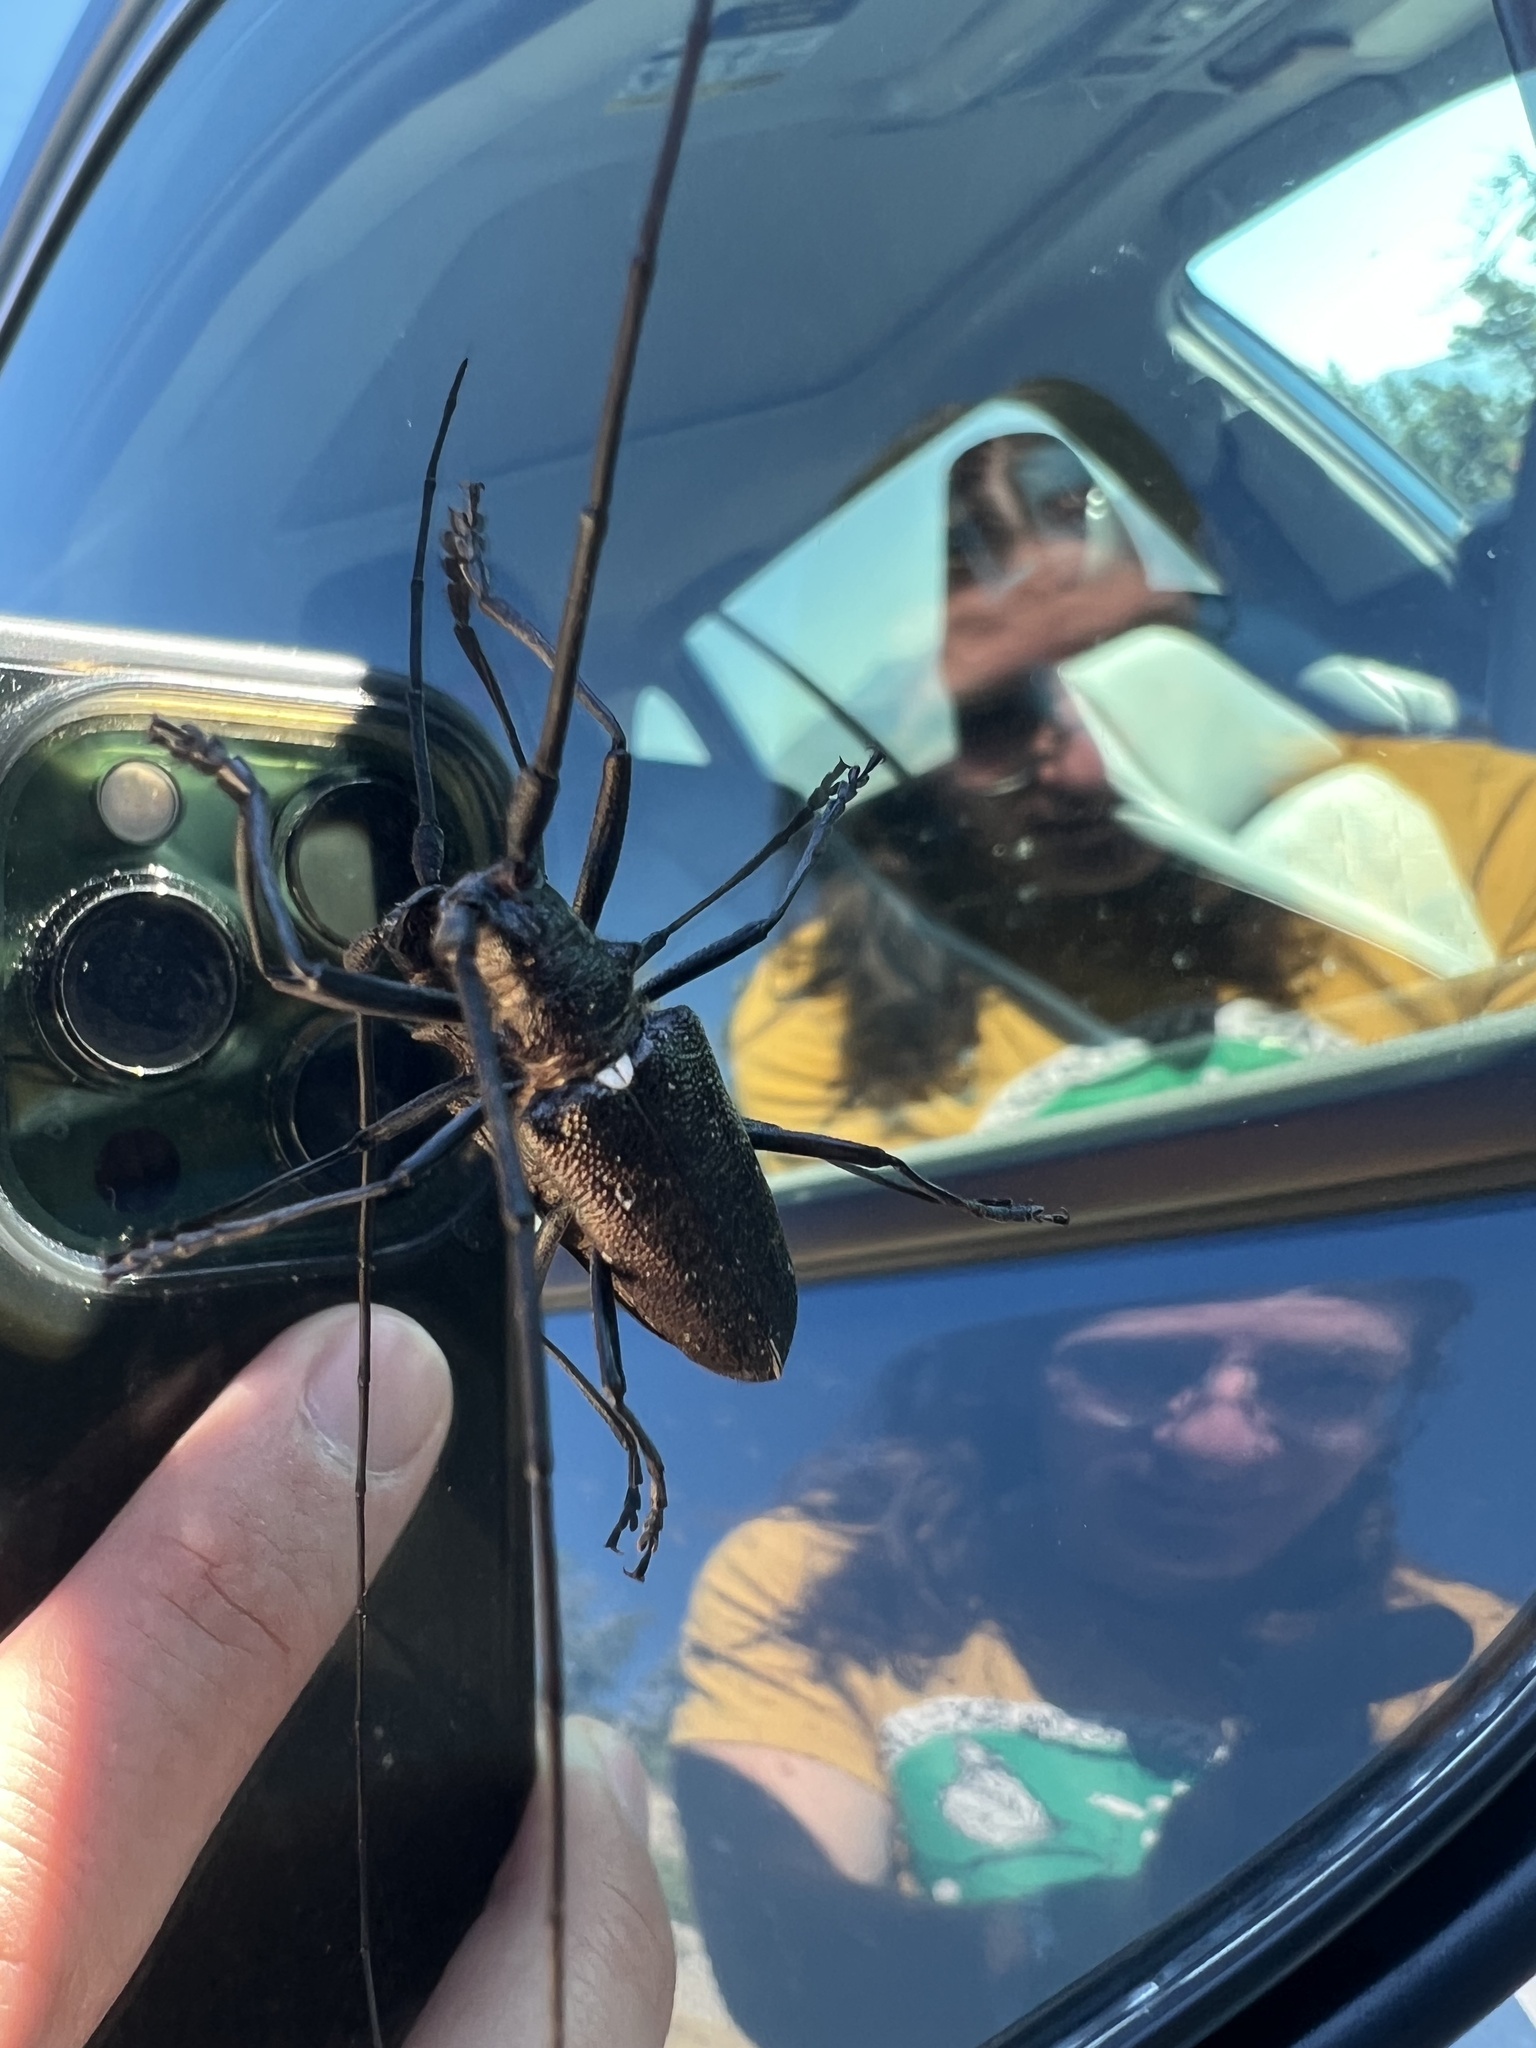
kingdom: Animalia
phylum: Arthropoda
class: Insecta
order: Coleoptera
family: Cerambycidae
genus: Monochamus
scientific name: Monochamus scutellatus
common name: White-spotted sawyer beetle
